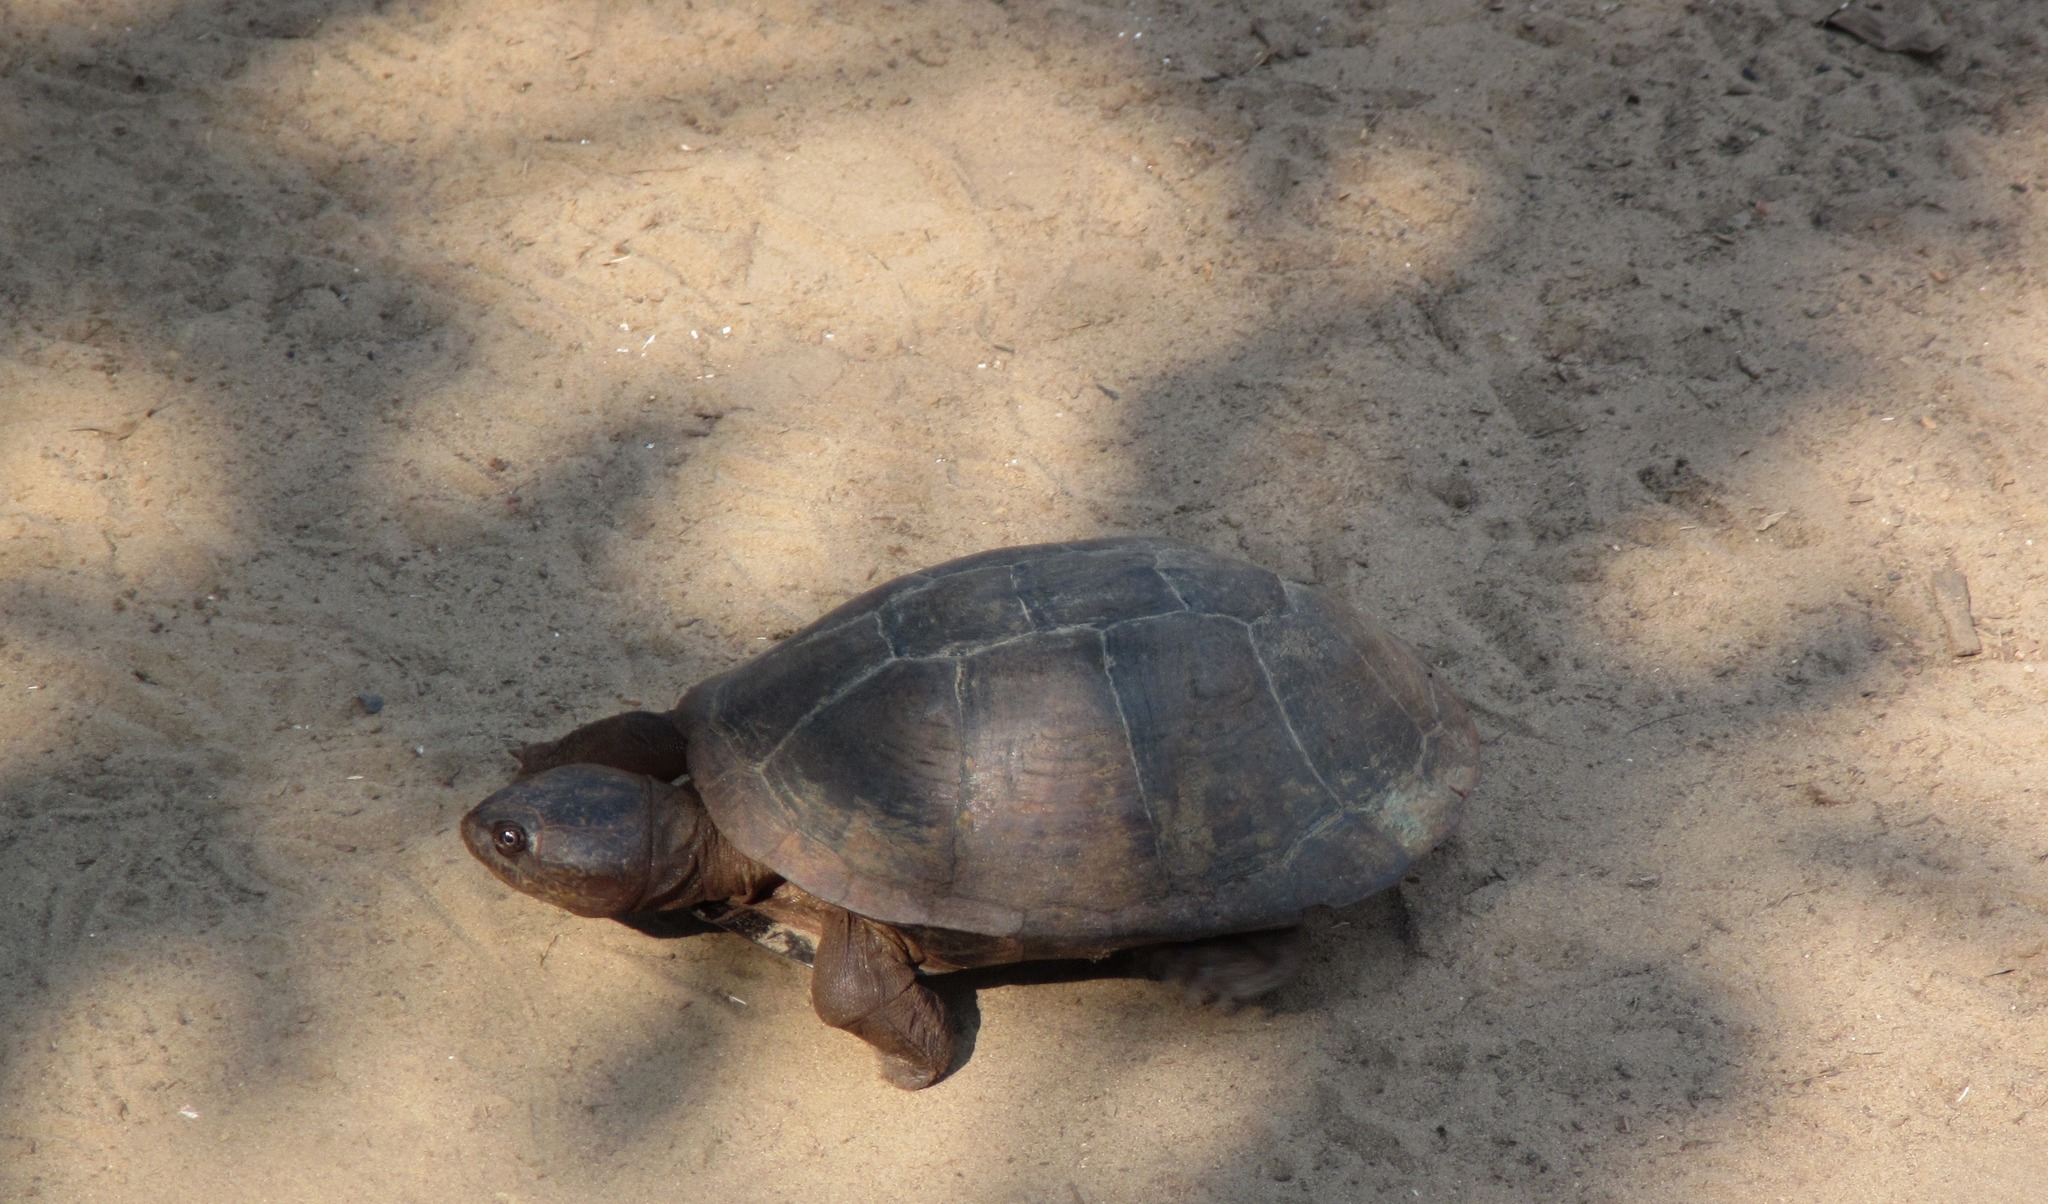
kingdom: Animalia
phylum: Chordata
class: Testudines
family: Pelomedusidae
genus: Pelusios
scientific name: Pelusios niger
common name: West african black mud turtle
